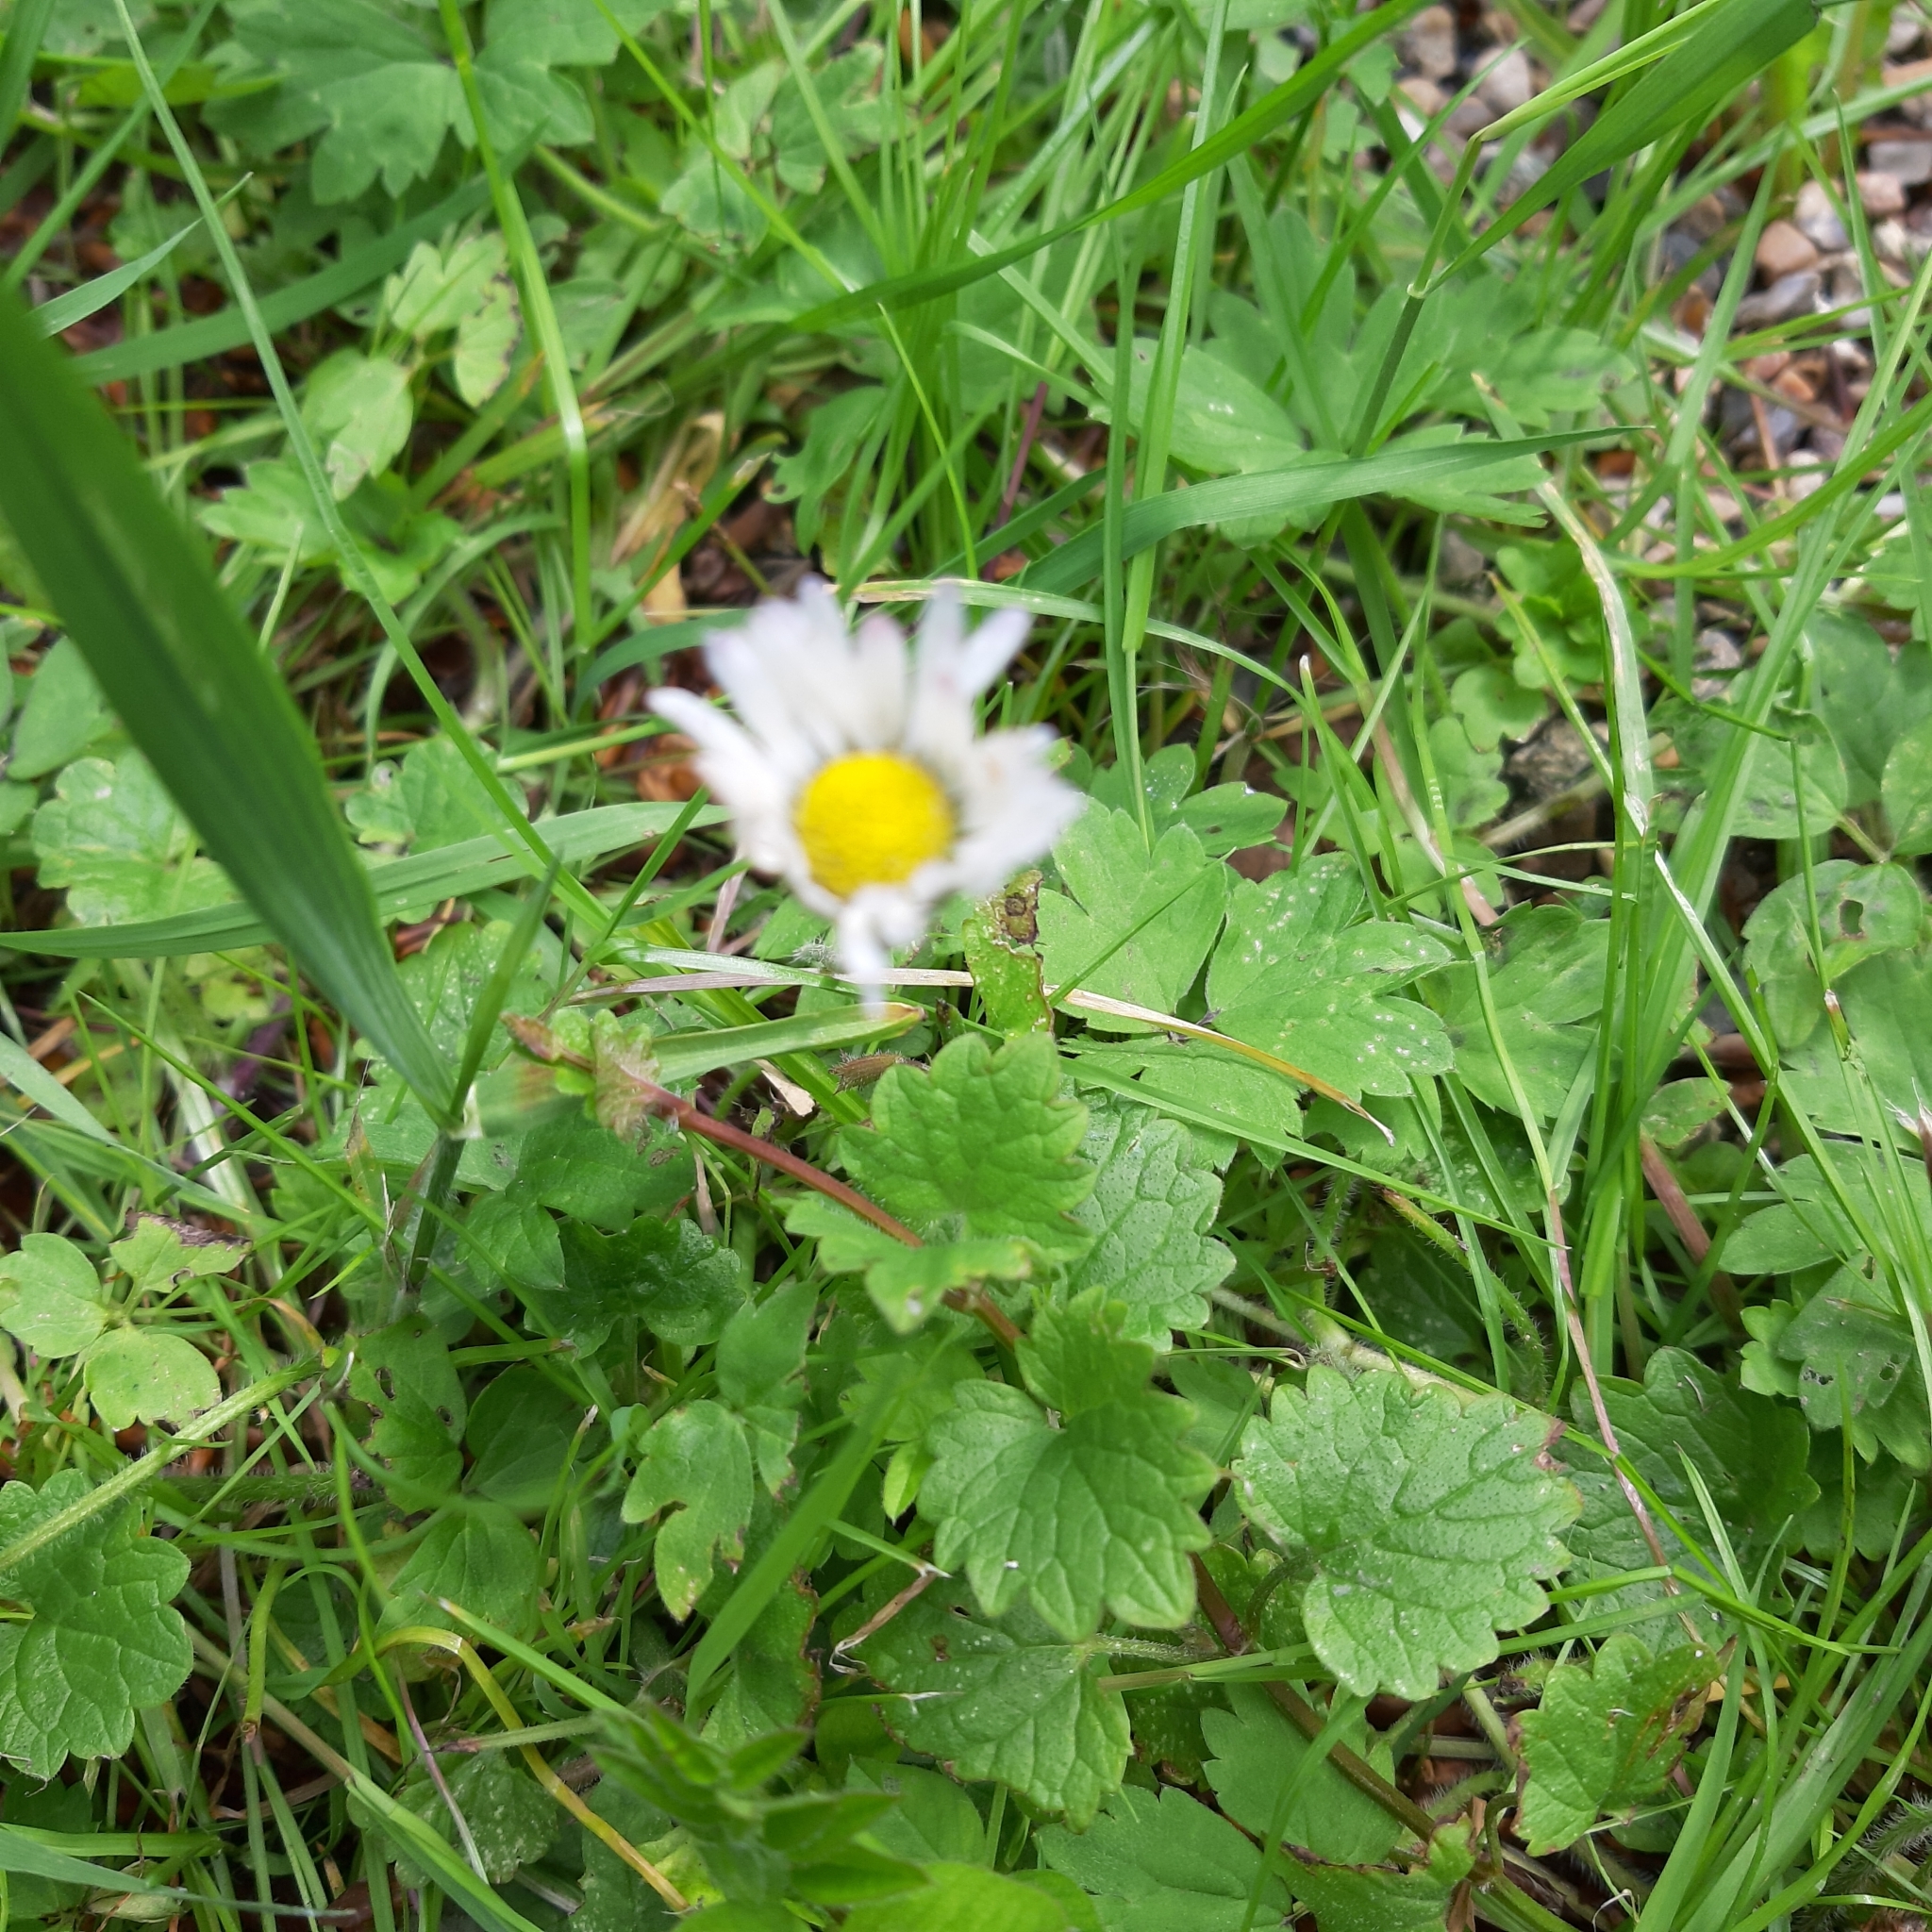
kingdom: Plantae
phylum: Tracheophyta
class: Magnoliopsida
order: Asterales
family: Asteraceae
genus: Bellis
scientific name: Bellis perennis
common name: Lawndaisy
